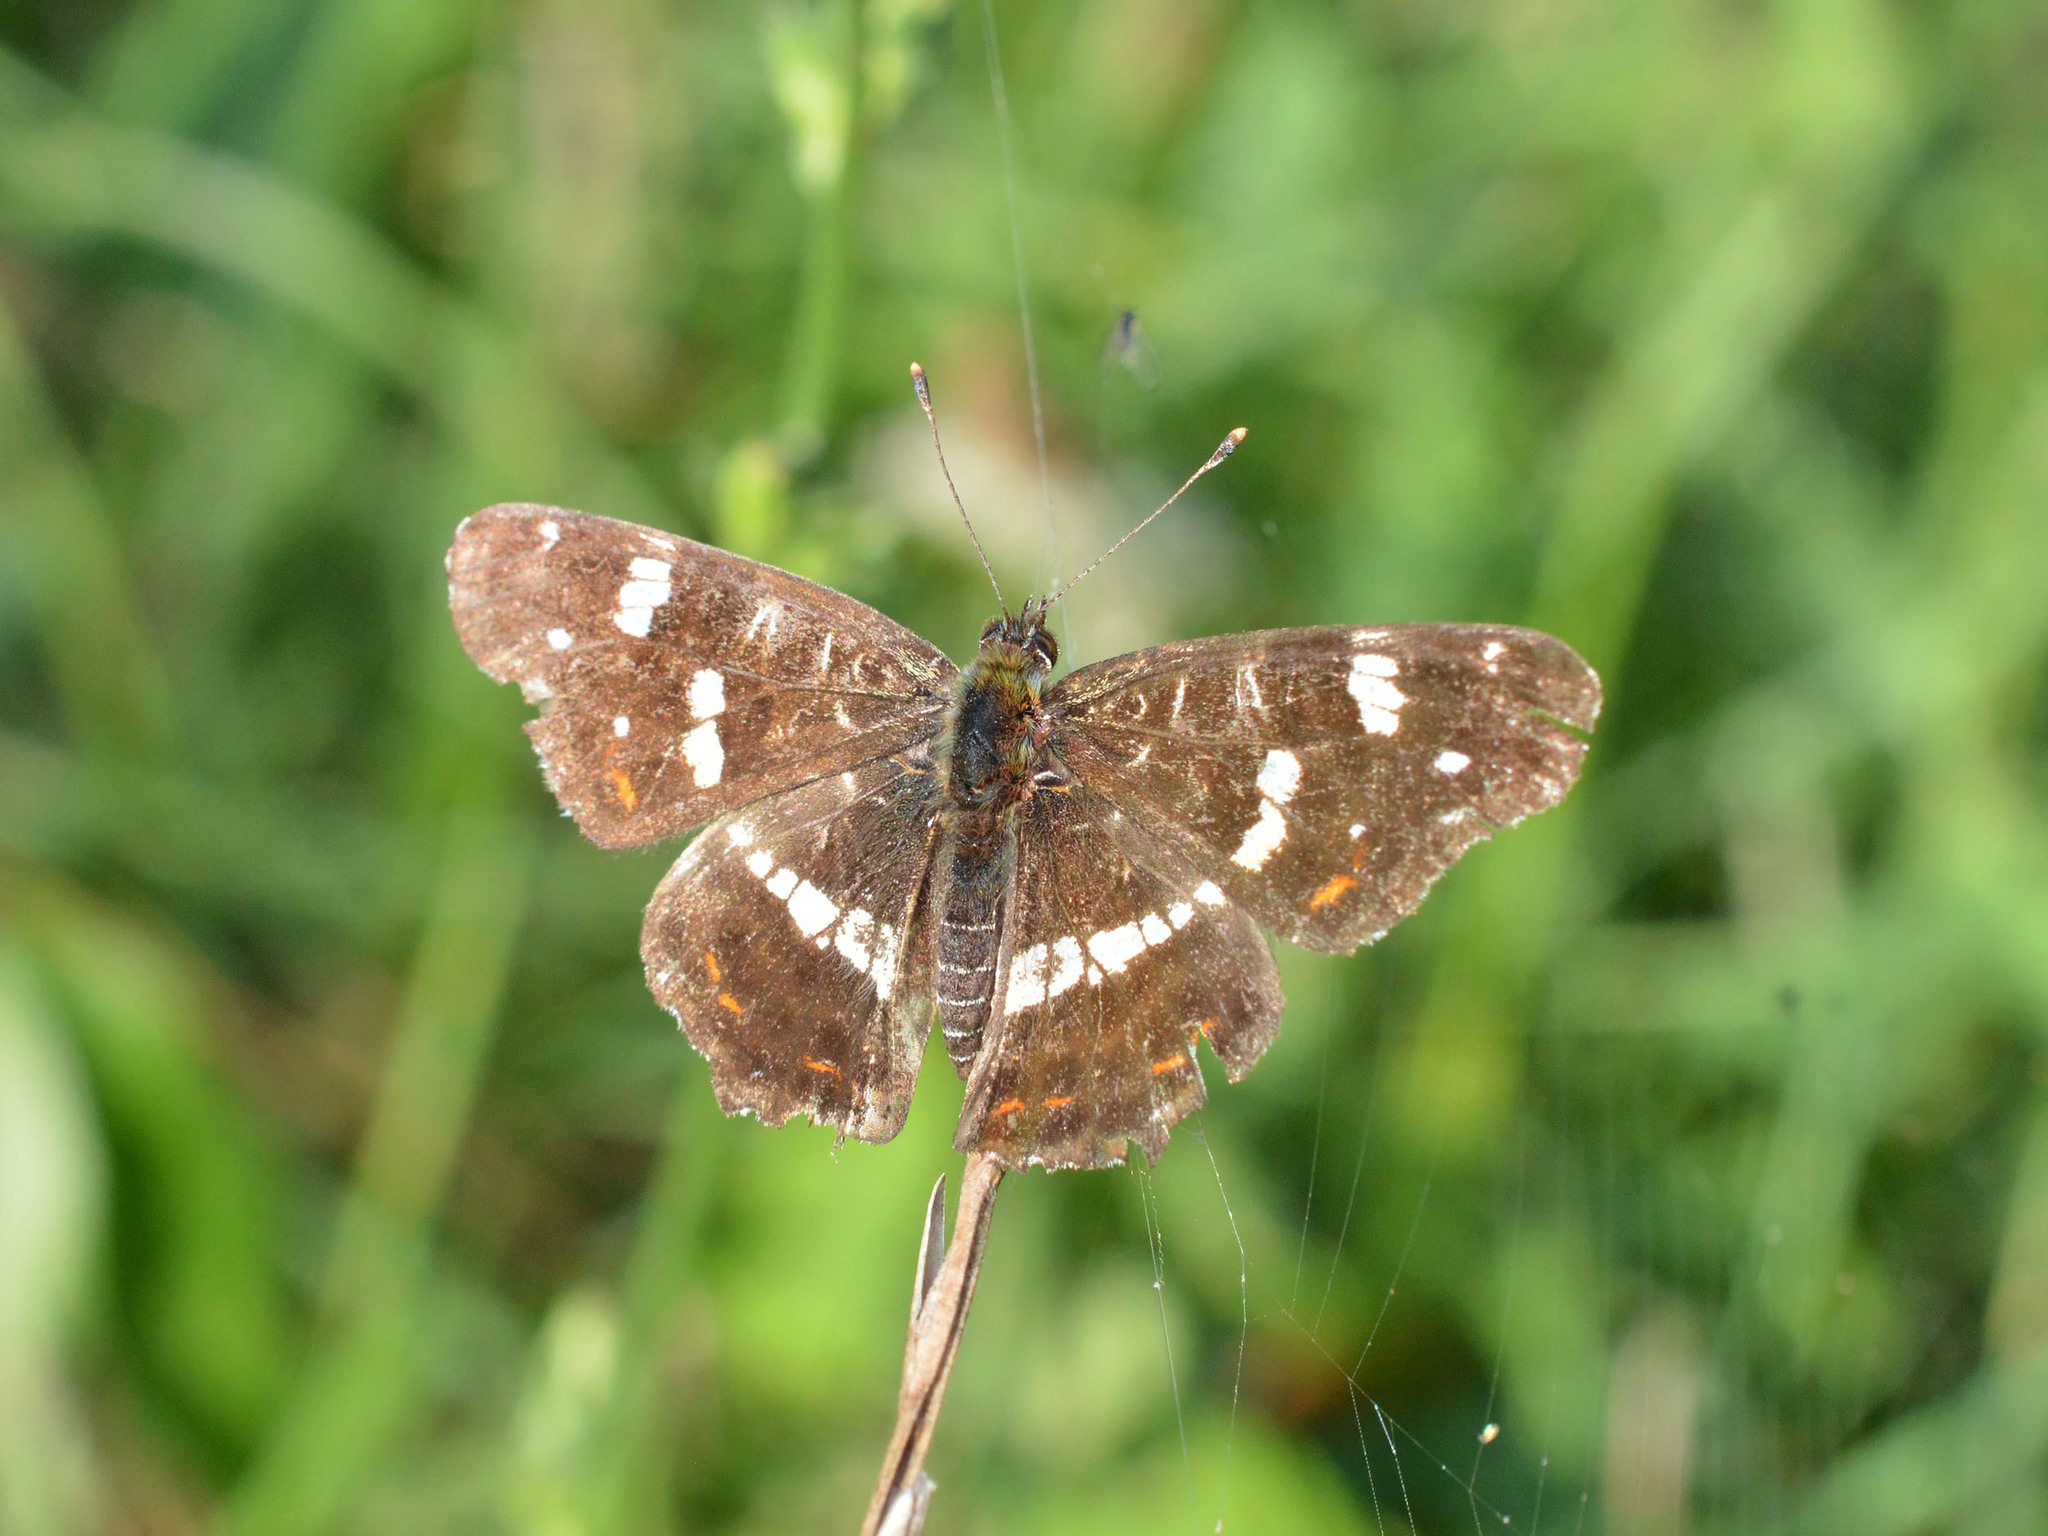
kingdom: Animalia
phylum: Arthropoda
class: Insecta
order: Lepidoptera
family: Nymphalidae
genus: Araschnia
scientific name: Araschnia levana
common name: Map butterfly
